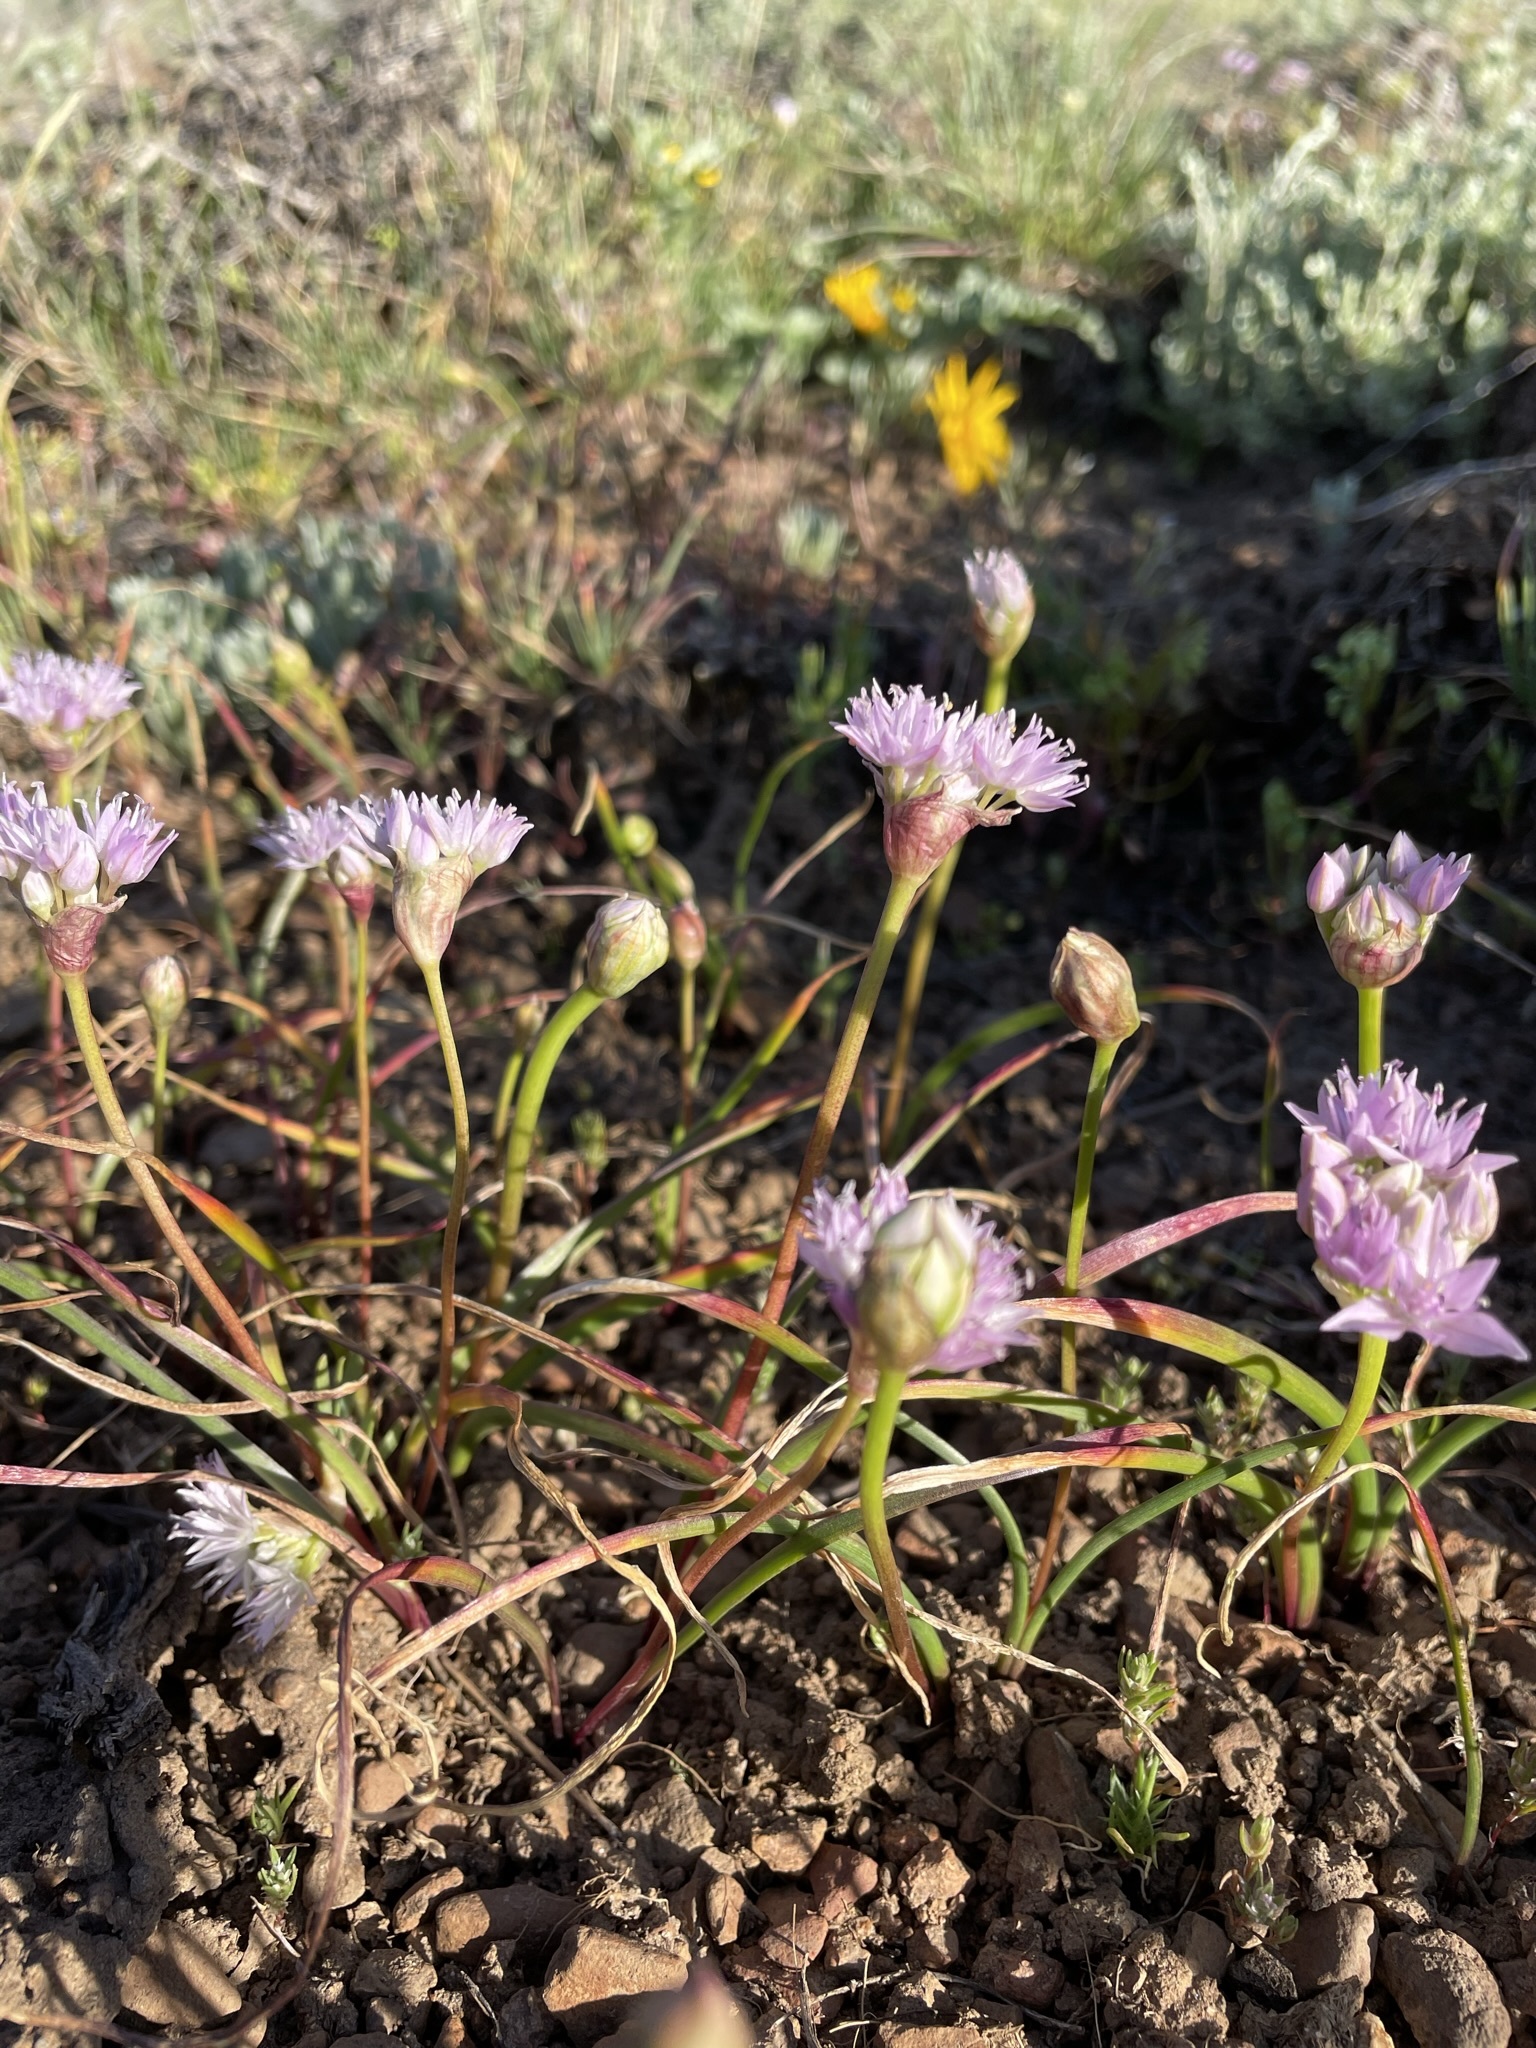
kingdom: Plantae
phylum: Tracheophyta
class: Liliopsida
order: Asparagales
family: Amaryllidaceae
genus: Allium
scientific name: Allium lemmonii
